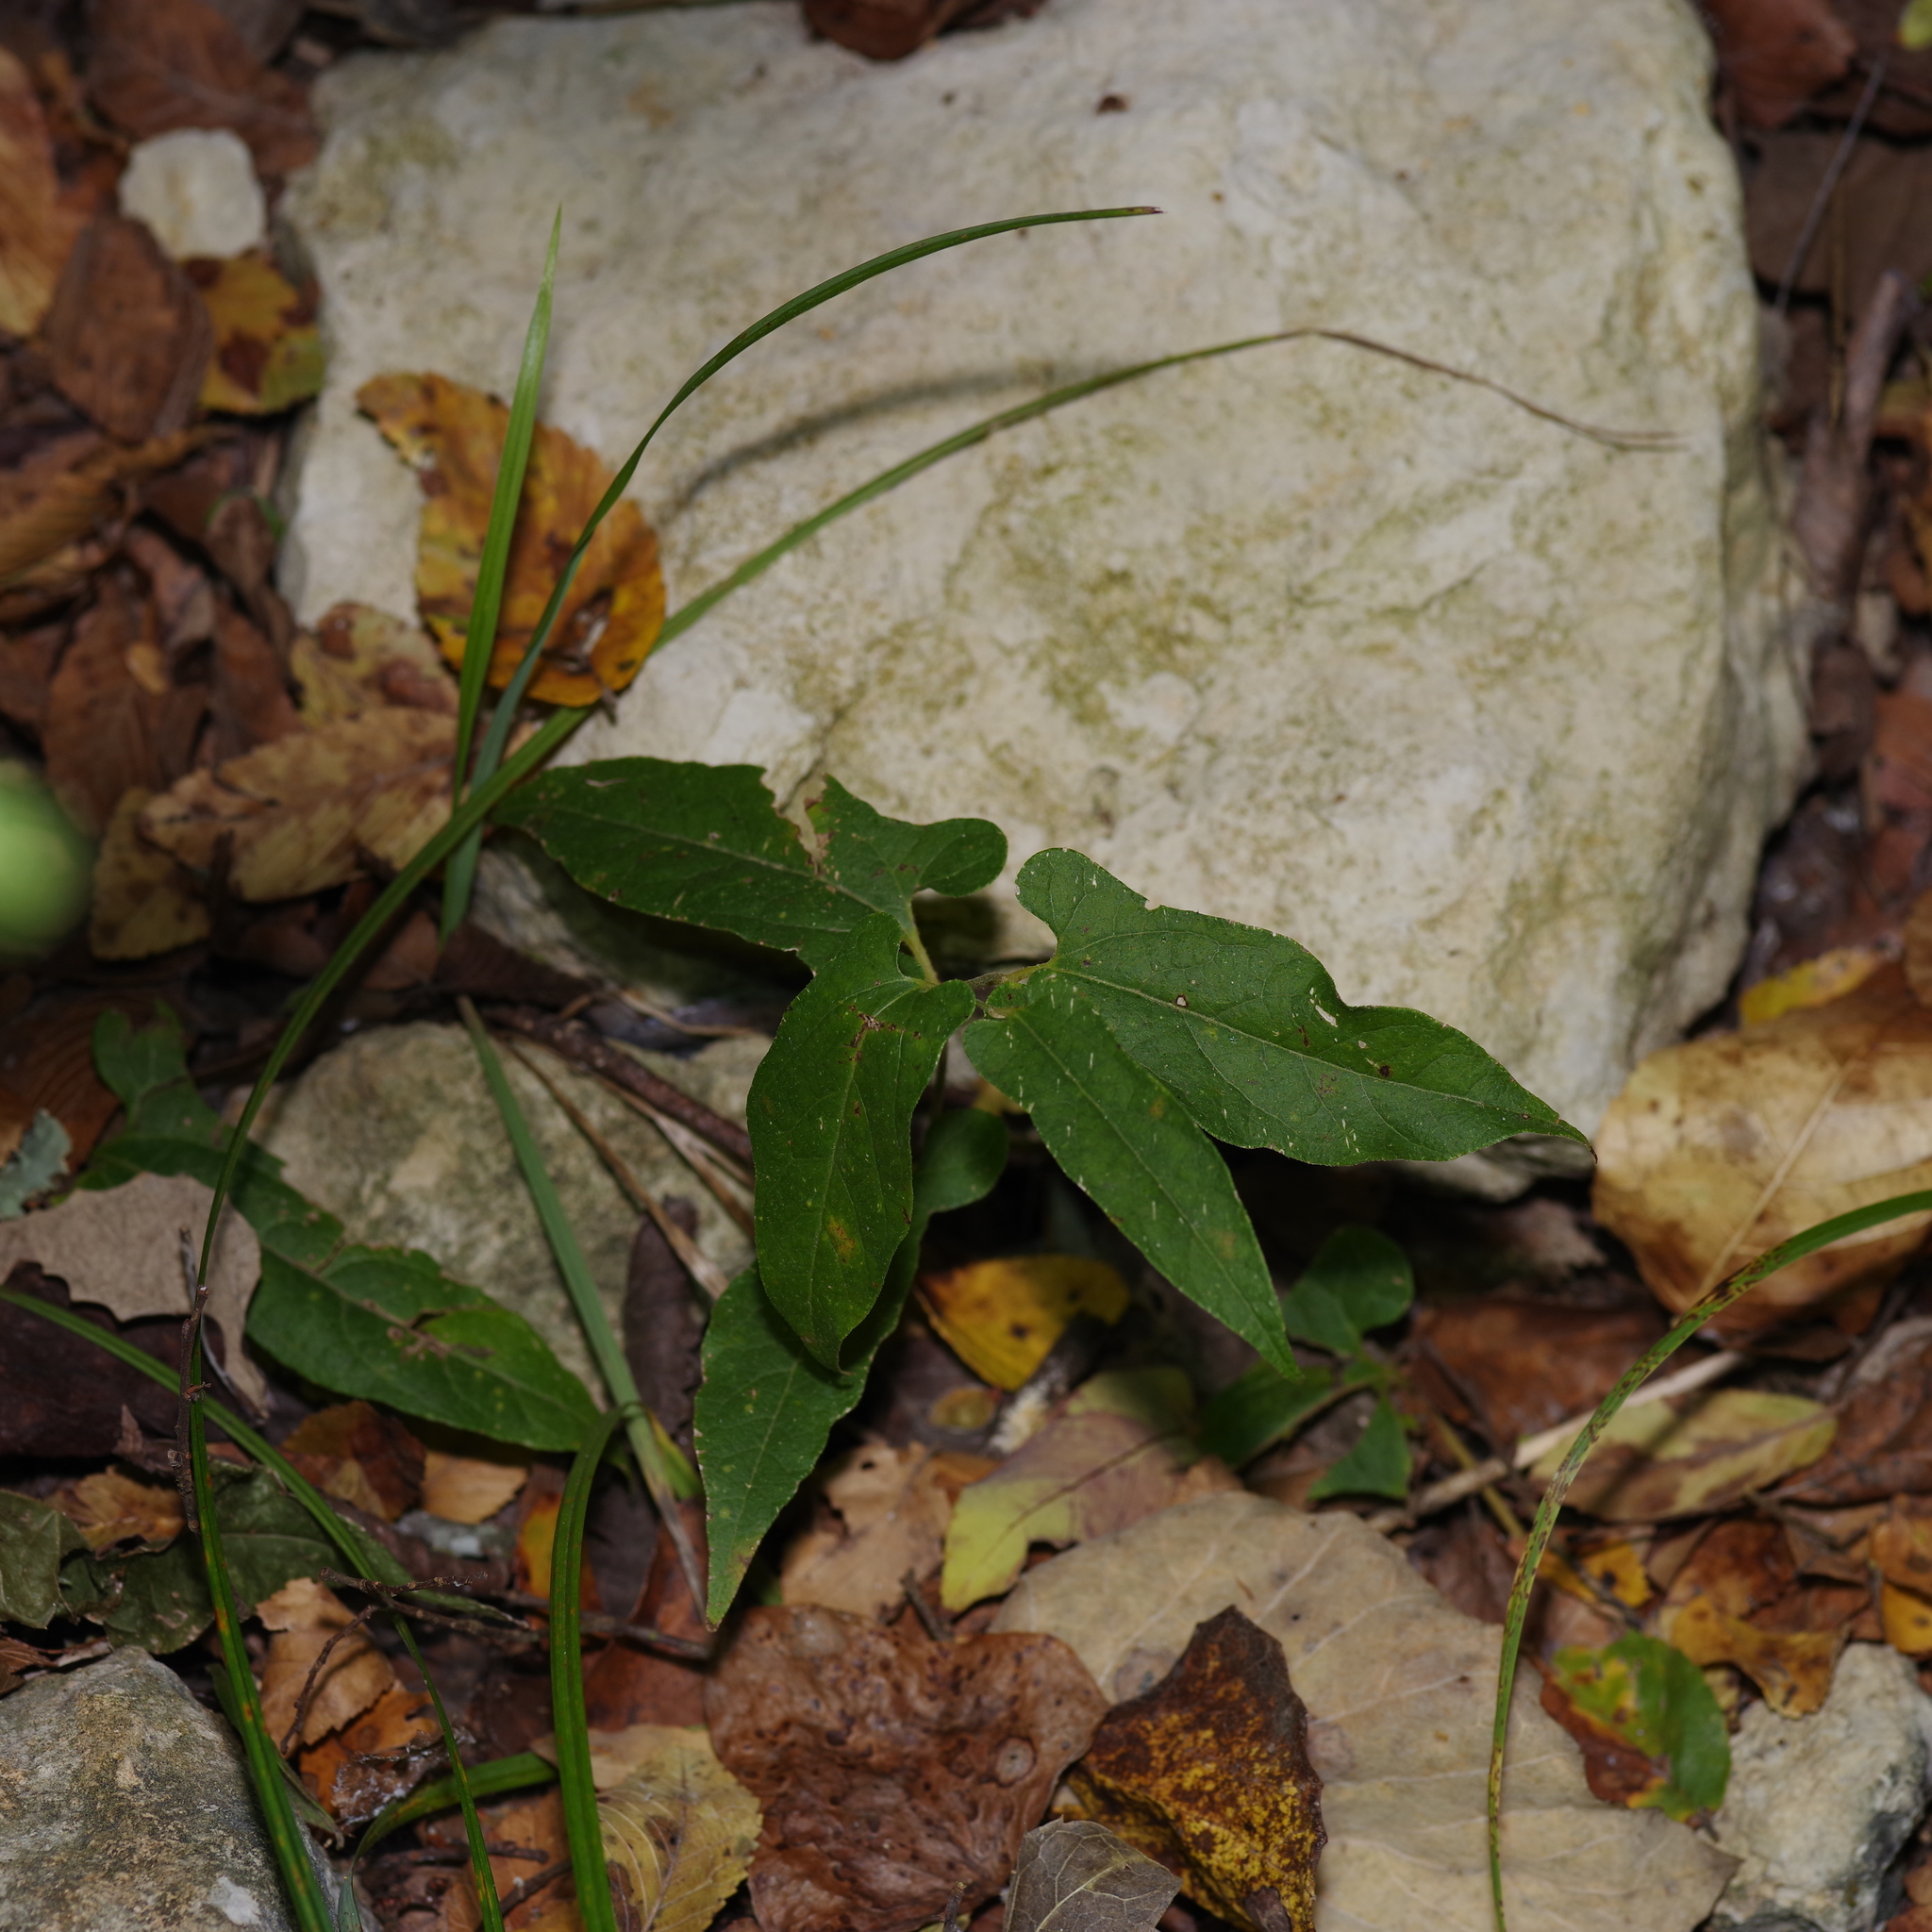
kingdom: Plantae
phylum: Tracheophyta
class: Magnoliopsida
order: Piperales
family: Aristolochiaceae
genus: Endodeca
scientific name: Endodeca serpentaria
